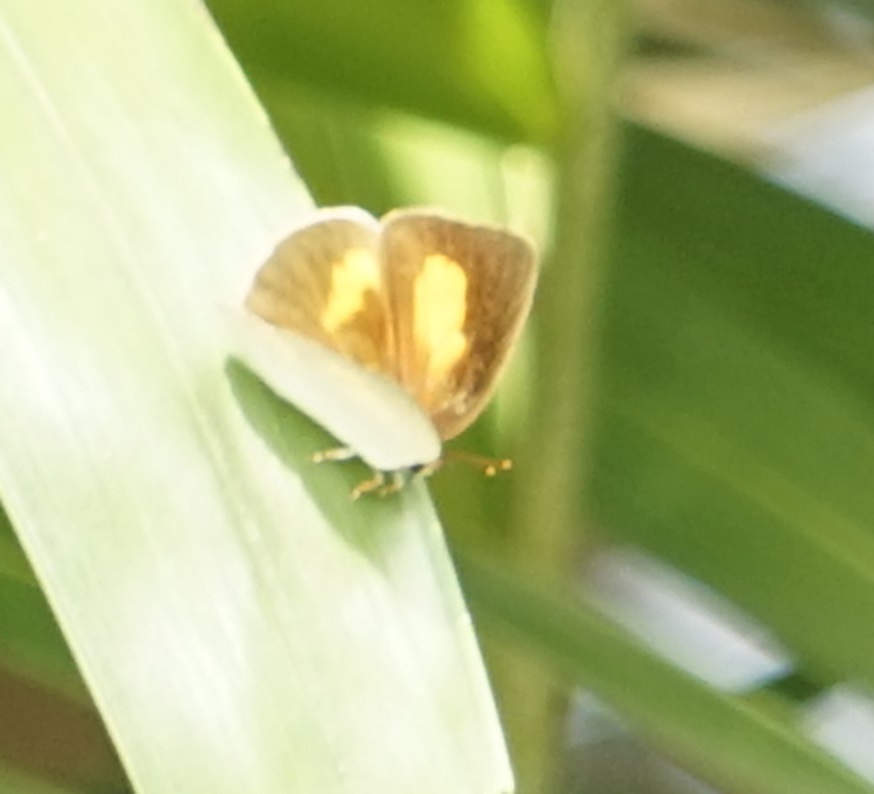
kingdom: Animalia
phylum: Arthropoda
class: Insecta
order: Lepidoptera
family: Lycaenidae
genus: Curetis
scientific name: Curetis saronis
